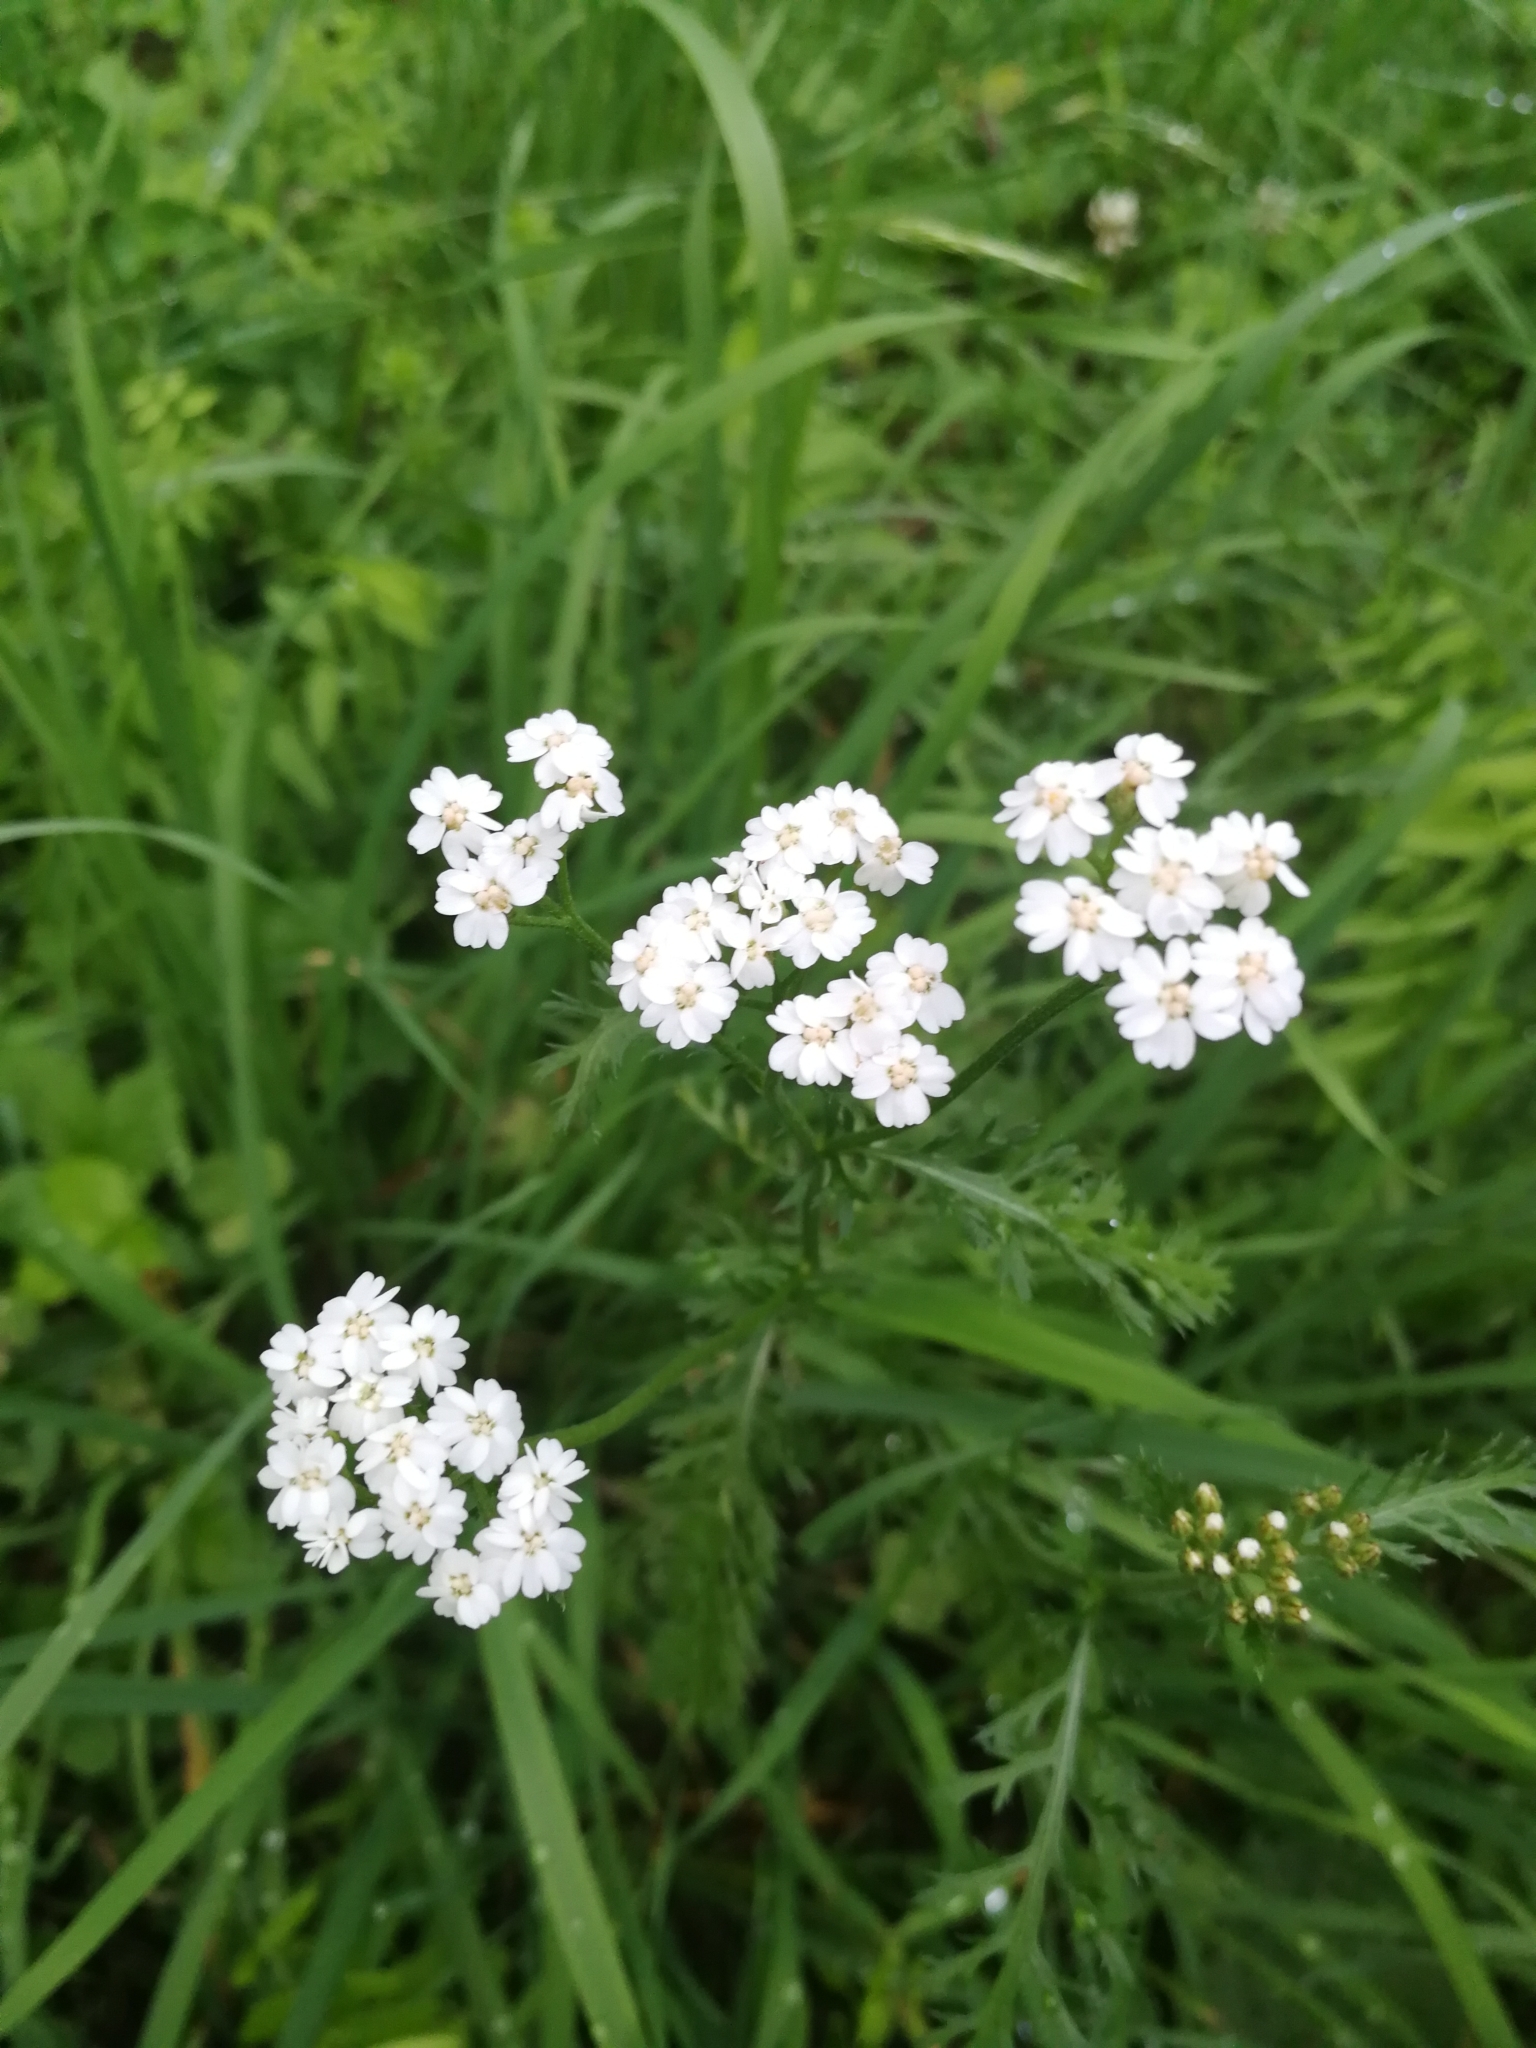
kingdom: Plantae
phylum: Tracheophyta
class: Magnoliopsida
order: Asterales
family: Asteraceae
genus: Achillea
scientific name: Achillea millefolium
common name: Yarrow
